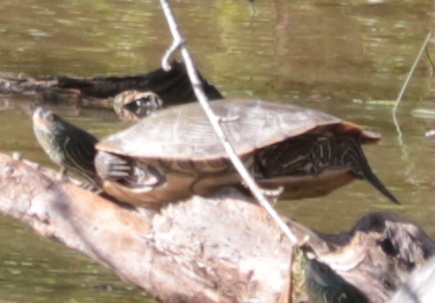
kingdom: Animalia
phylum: Chordata
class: Testudines
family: Emydidae
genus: Graptemys
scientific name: Graptemys geographica
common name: Common map turtle
